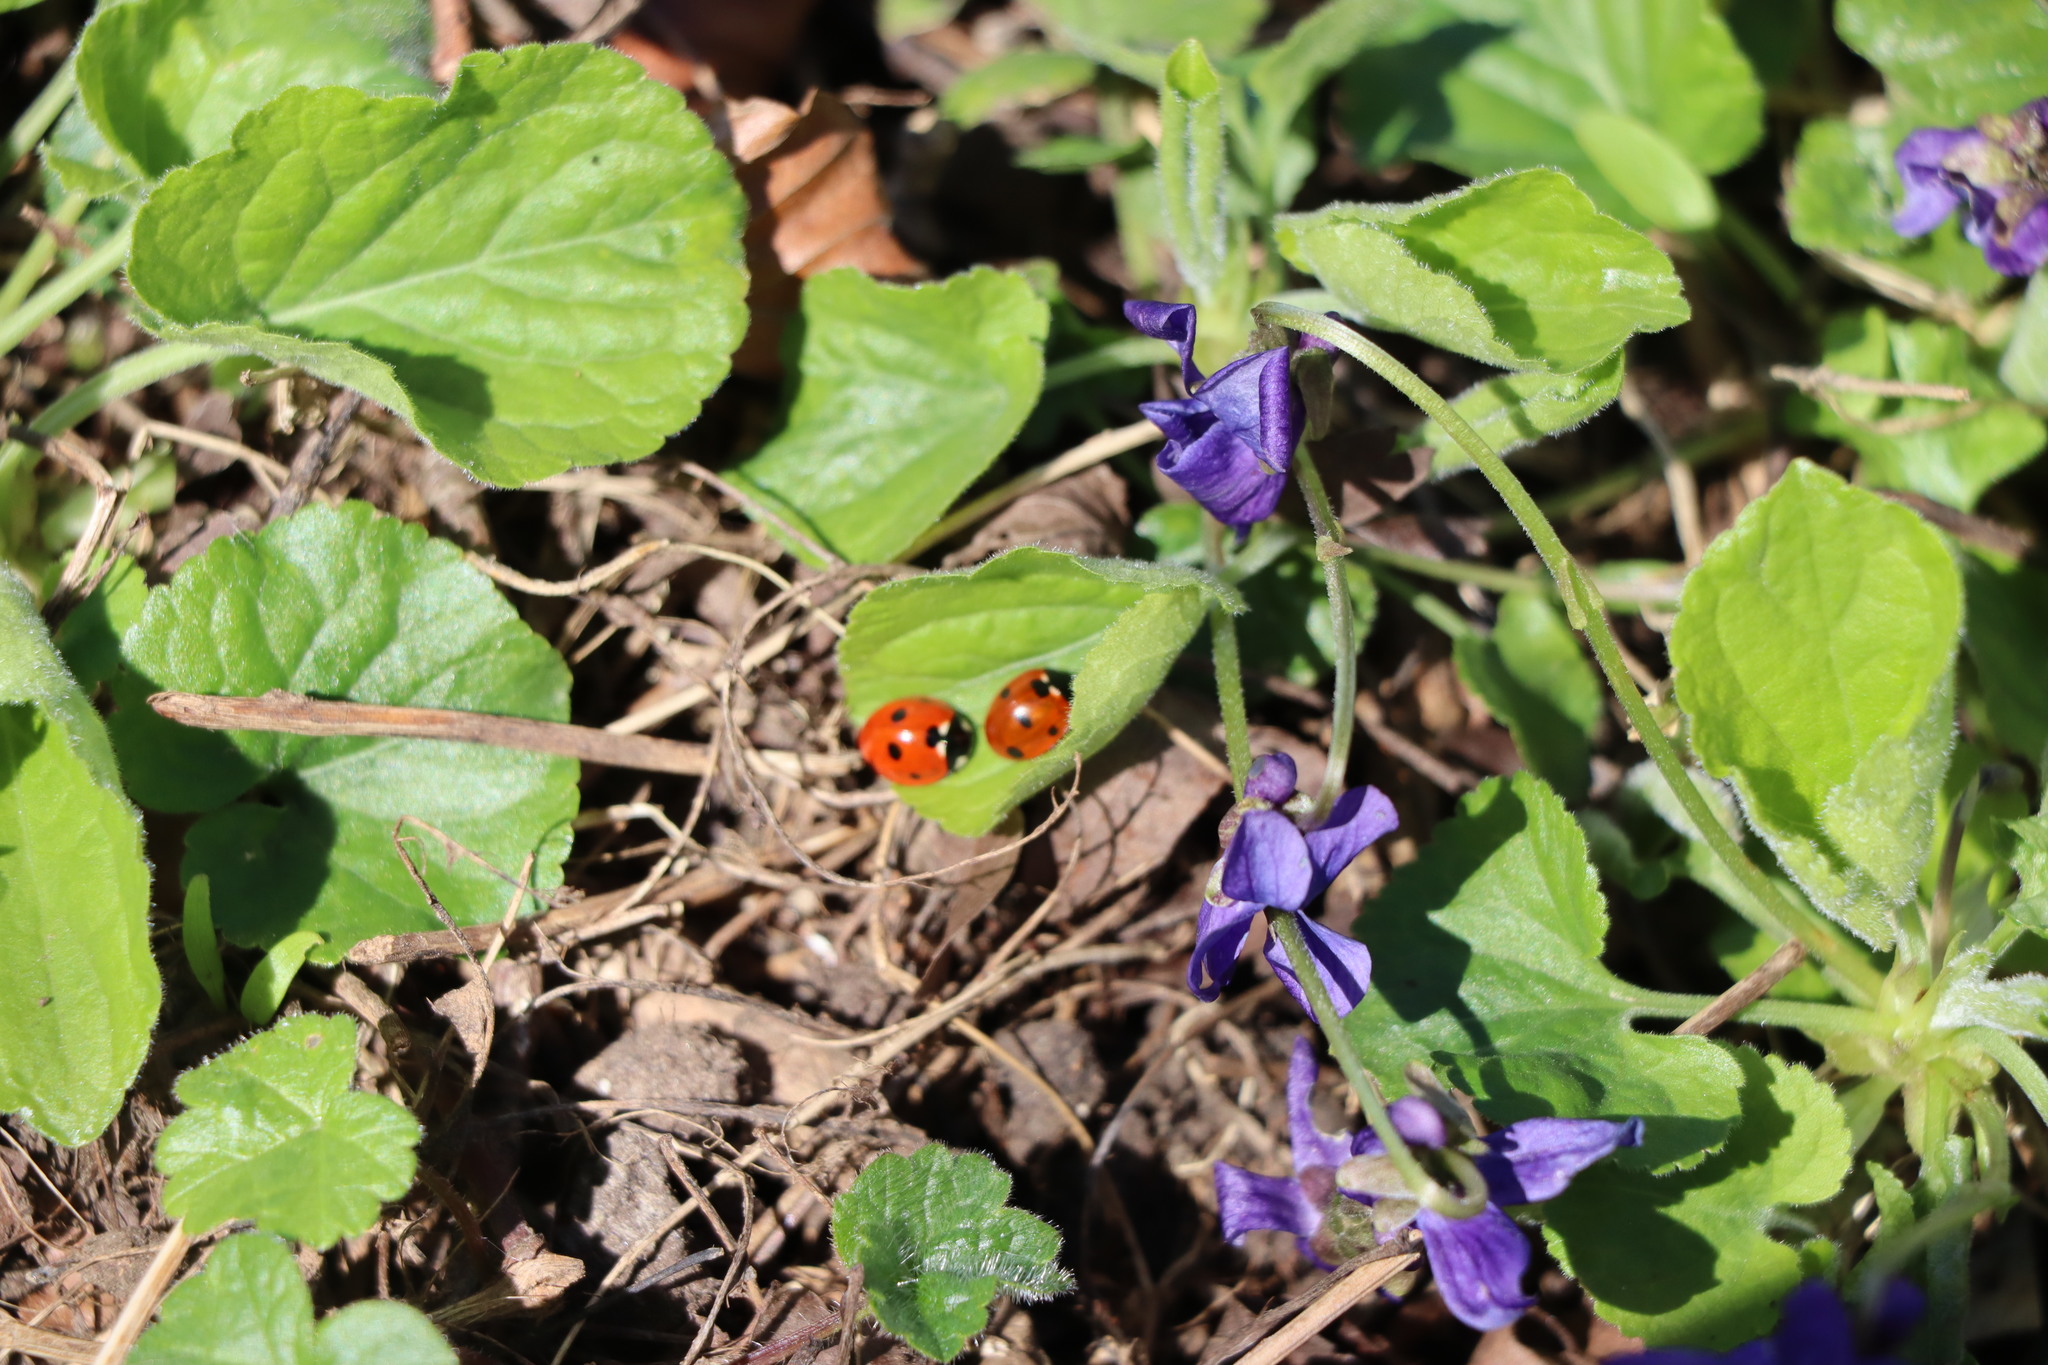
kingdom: Animalia
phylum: Arthropoda
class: Insecta
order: Coleoptera
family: Coccinellidae
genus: Coccinella
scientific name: Coccinella septempunctata
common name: Sevenspotted lady beetle
